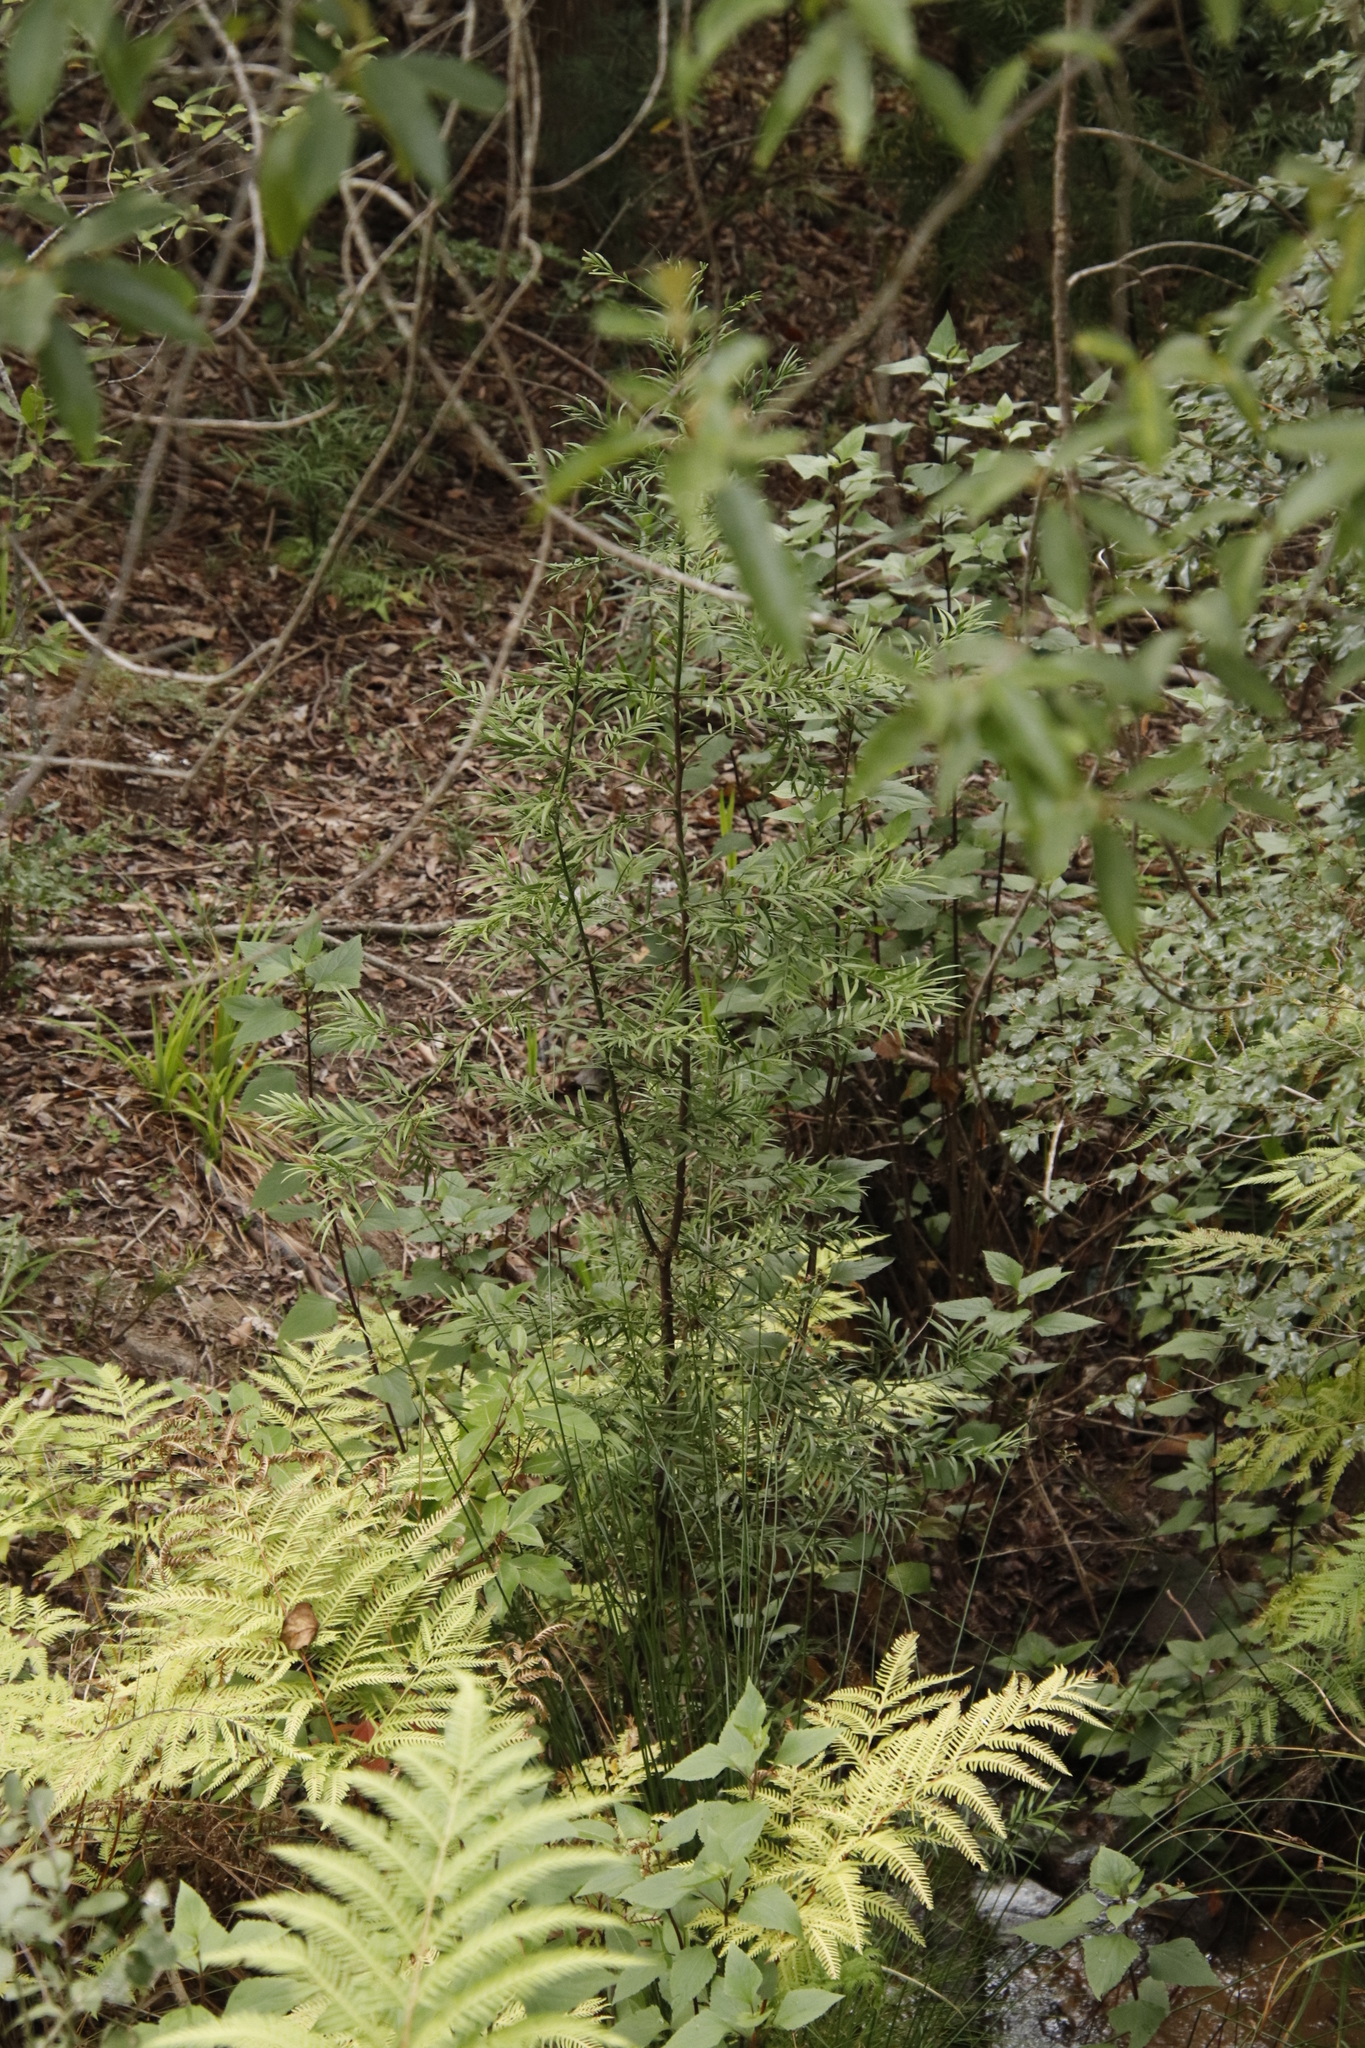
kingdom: Plantae
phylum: Tracheophyta
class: Pinopsida
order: Pinales
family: Podocarpaceae
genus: Afrocarpus
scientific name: Afrocarpus falcatus
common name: Bastard yellowwood
